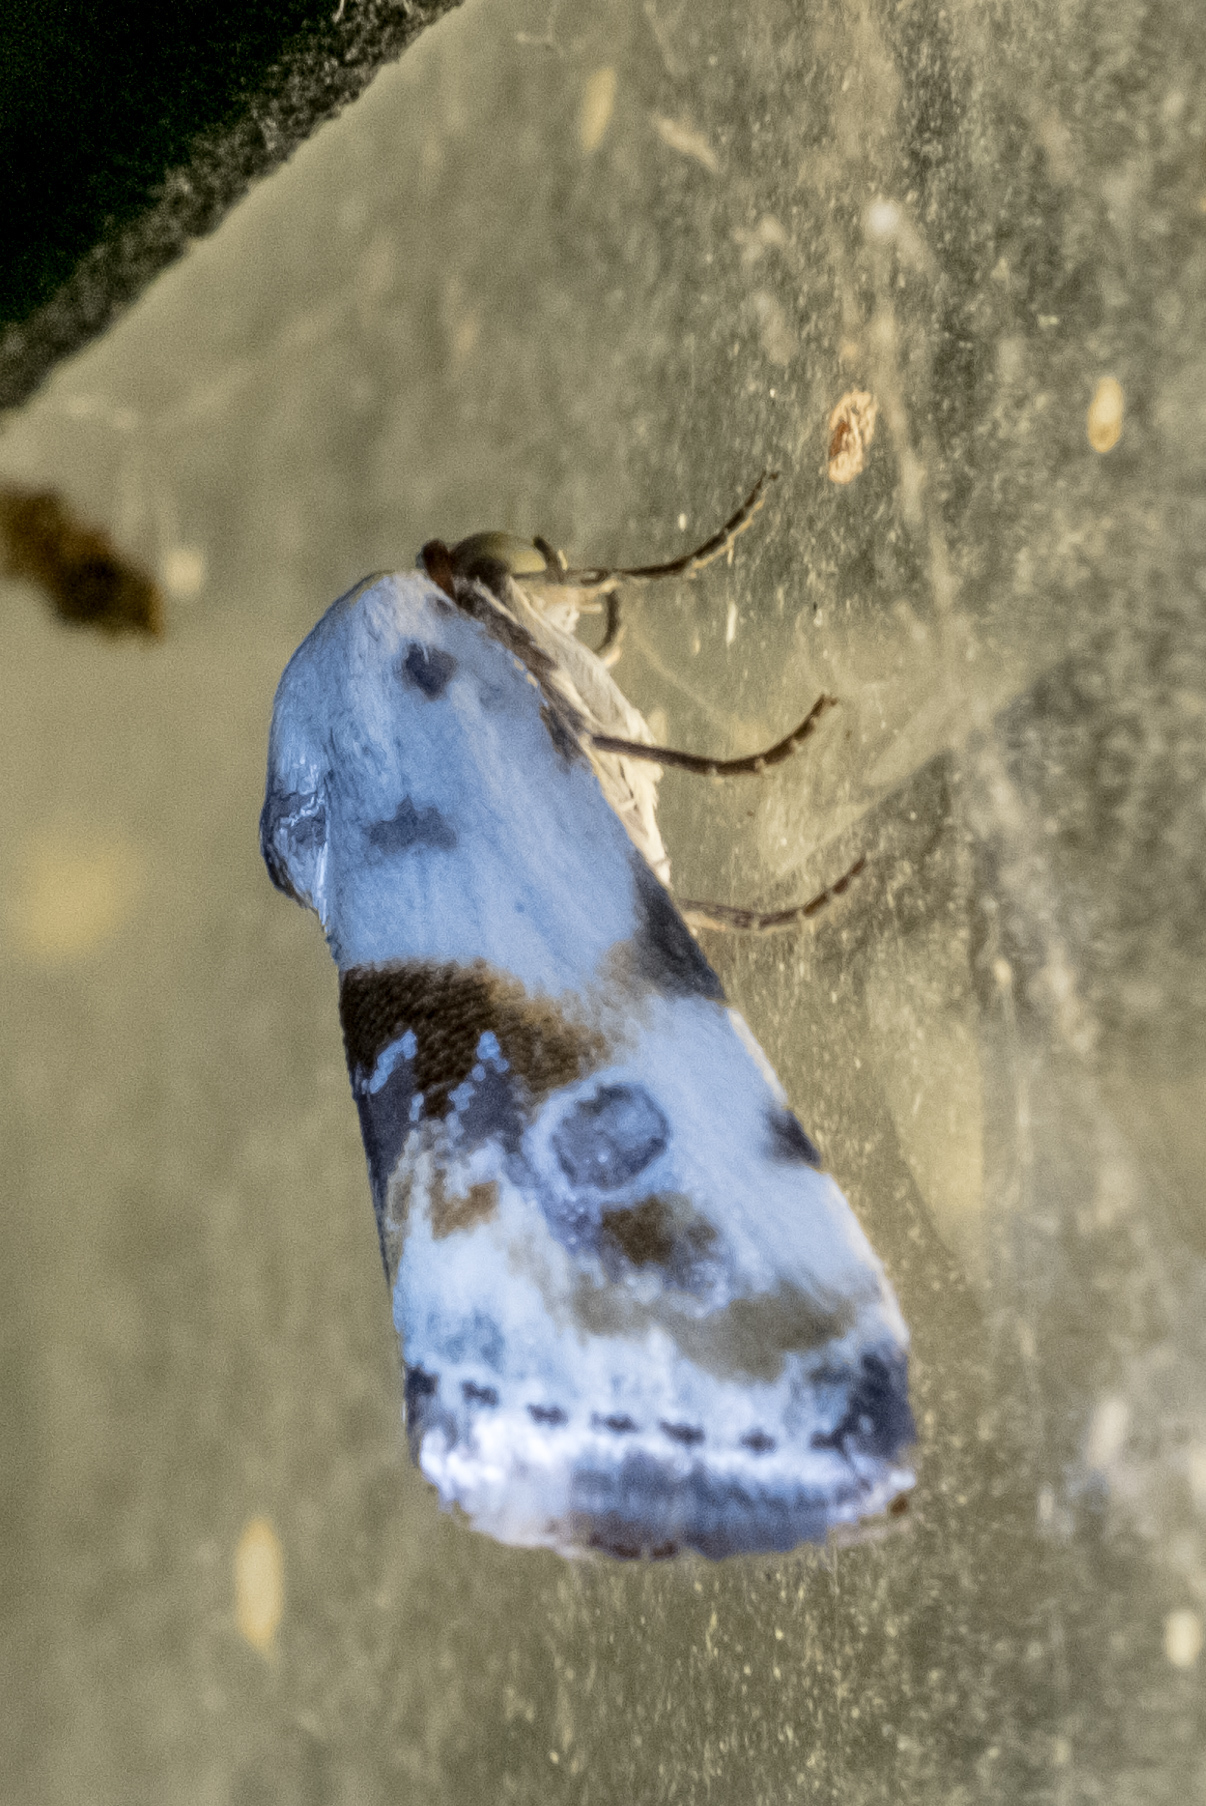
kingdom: Animalia
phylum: Arthropoda
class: Insecta
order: Lepidoptera
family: Noctuidae
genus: Acontia
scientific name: Acontia candefacta
